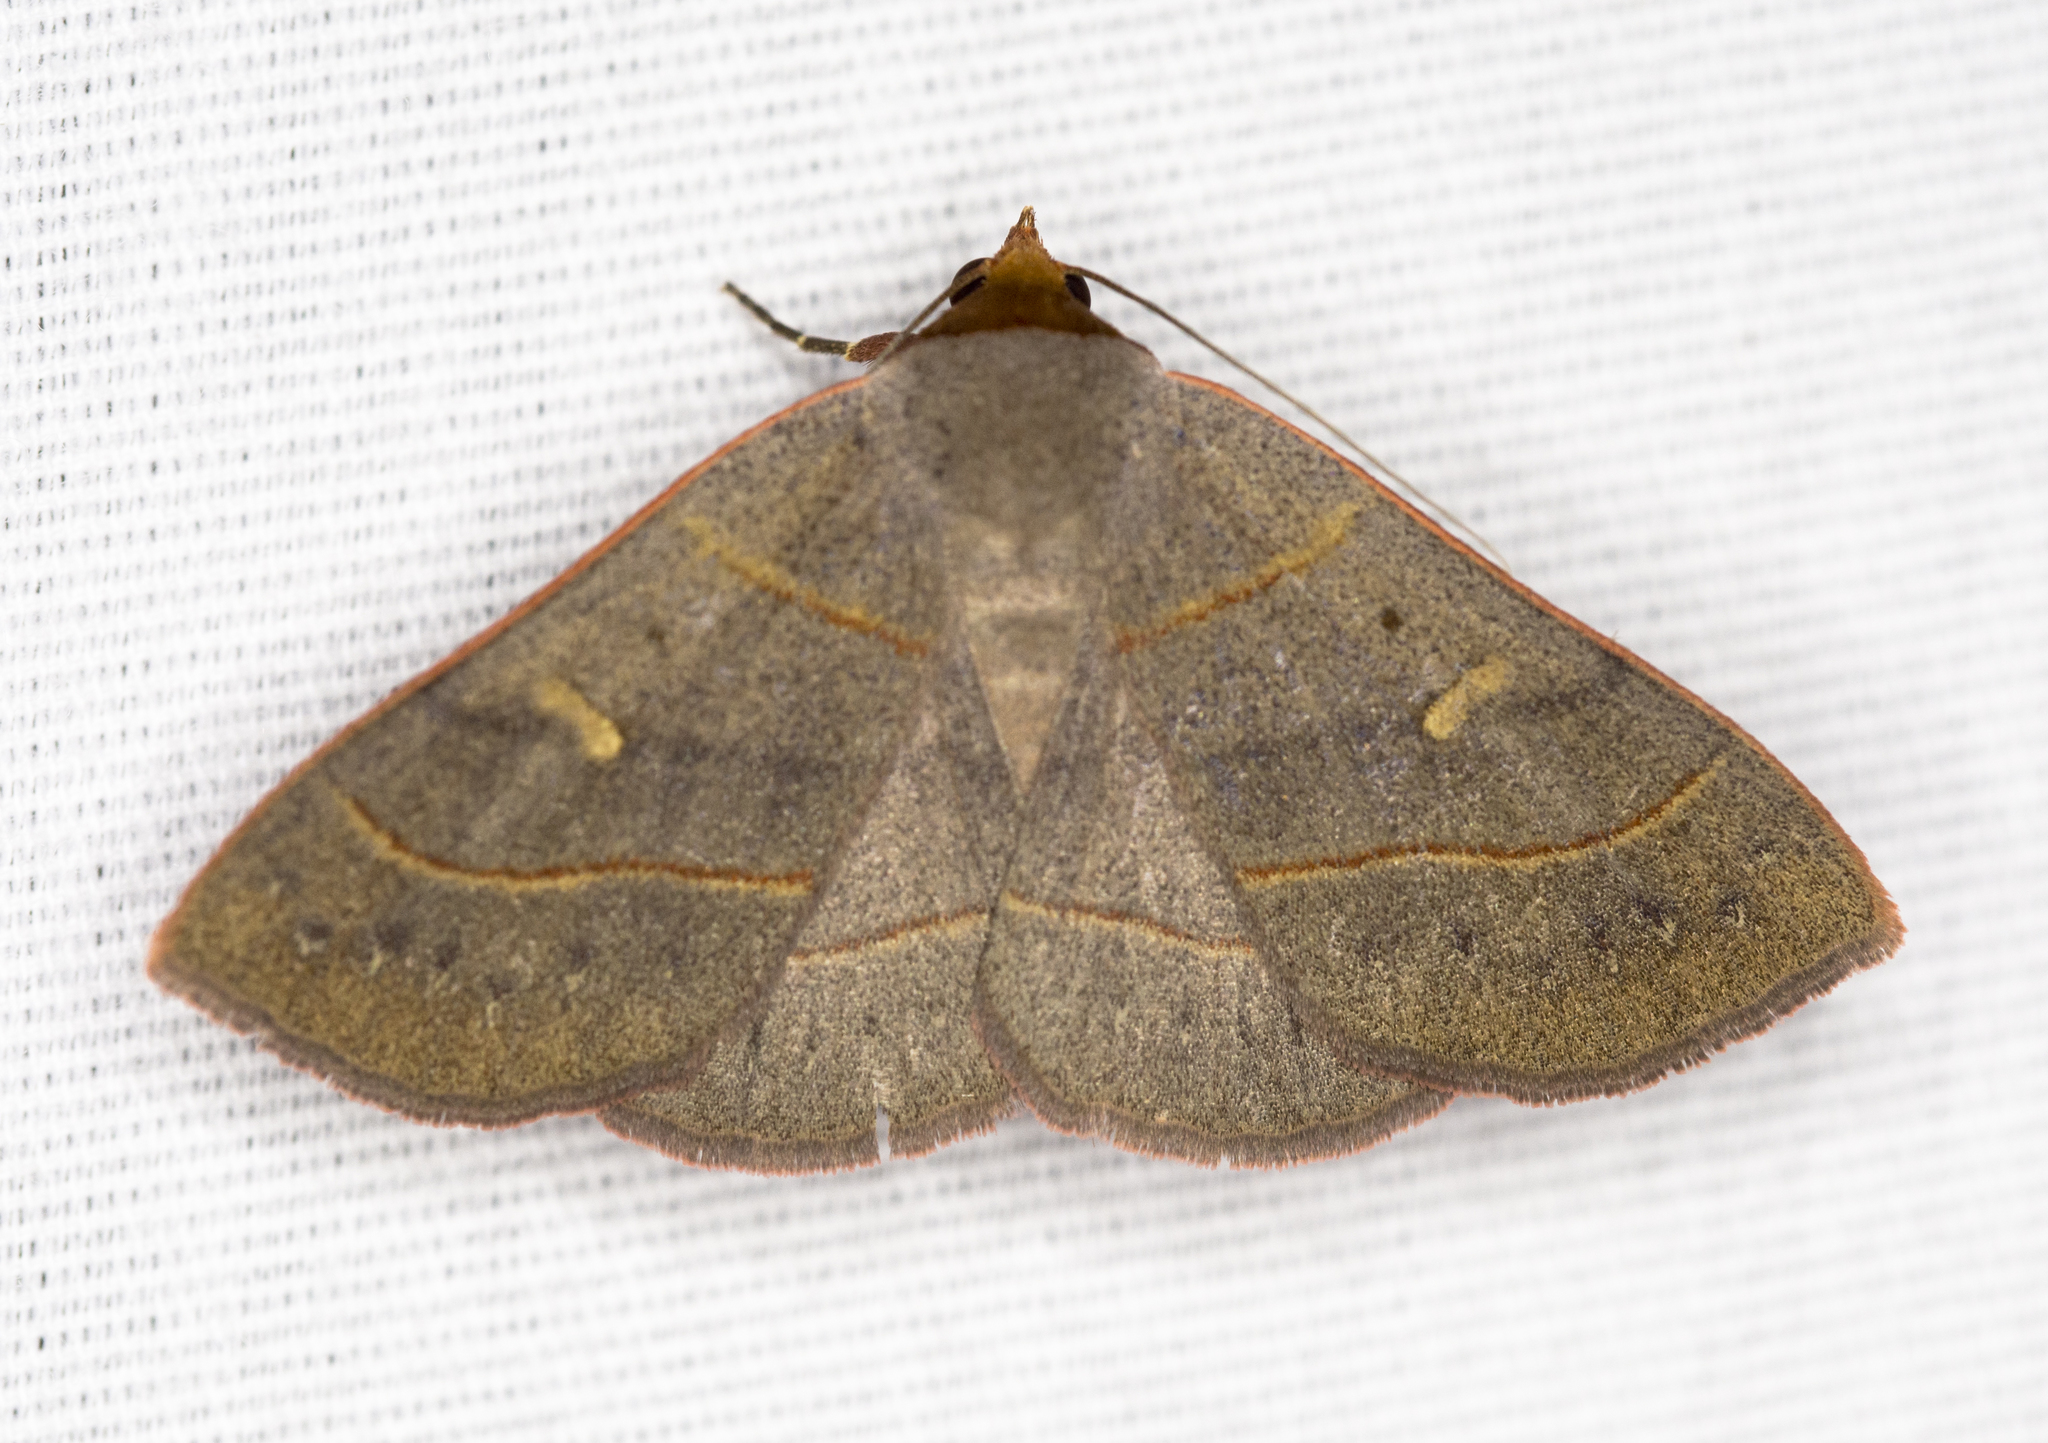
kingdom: Animalia
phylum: Arthropoda
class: Insecta
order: Lepidoptera
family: Erebidae
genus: Panopoda
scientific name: Panopoda rufimargo
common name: Red-lined panopoda moth
